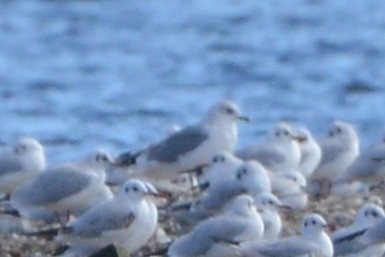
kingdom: Animalia
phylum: Chordata
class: Aves
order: Charadriiformes
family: Laridae
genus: Larus
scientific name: Larus canus
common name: Mew gull
